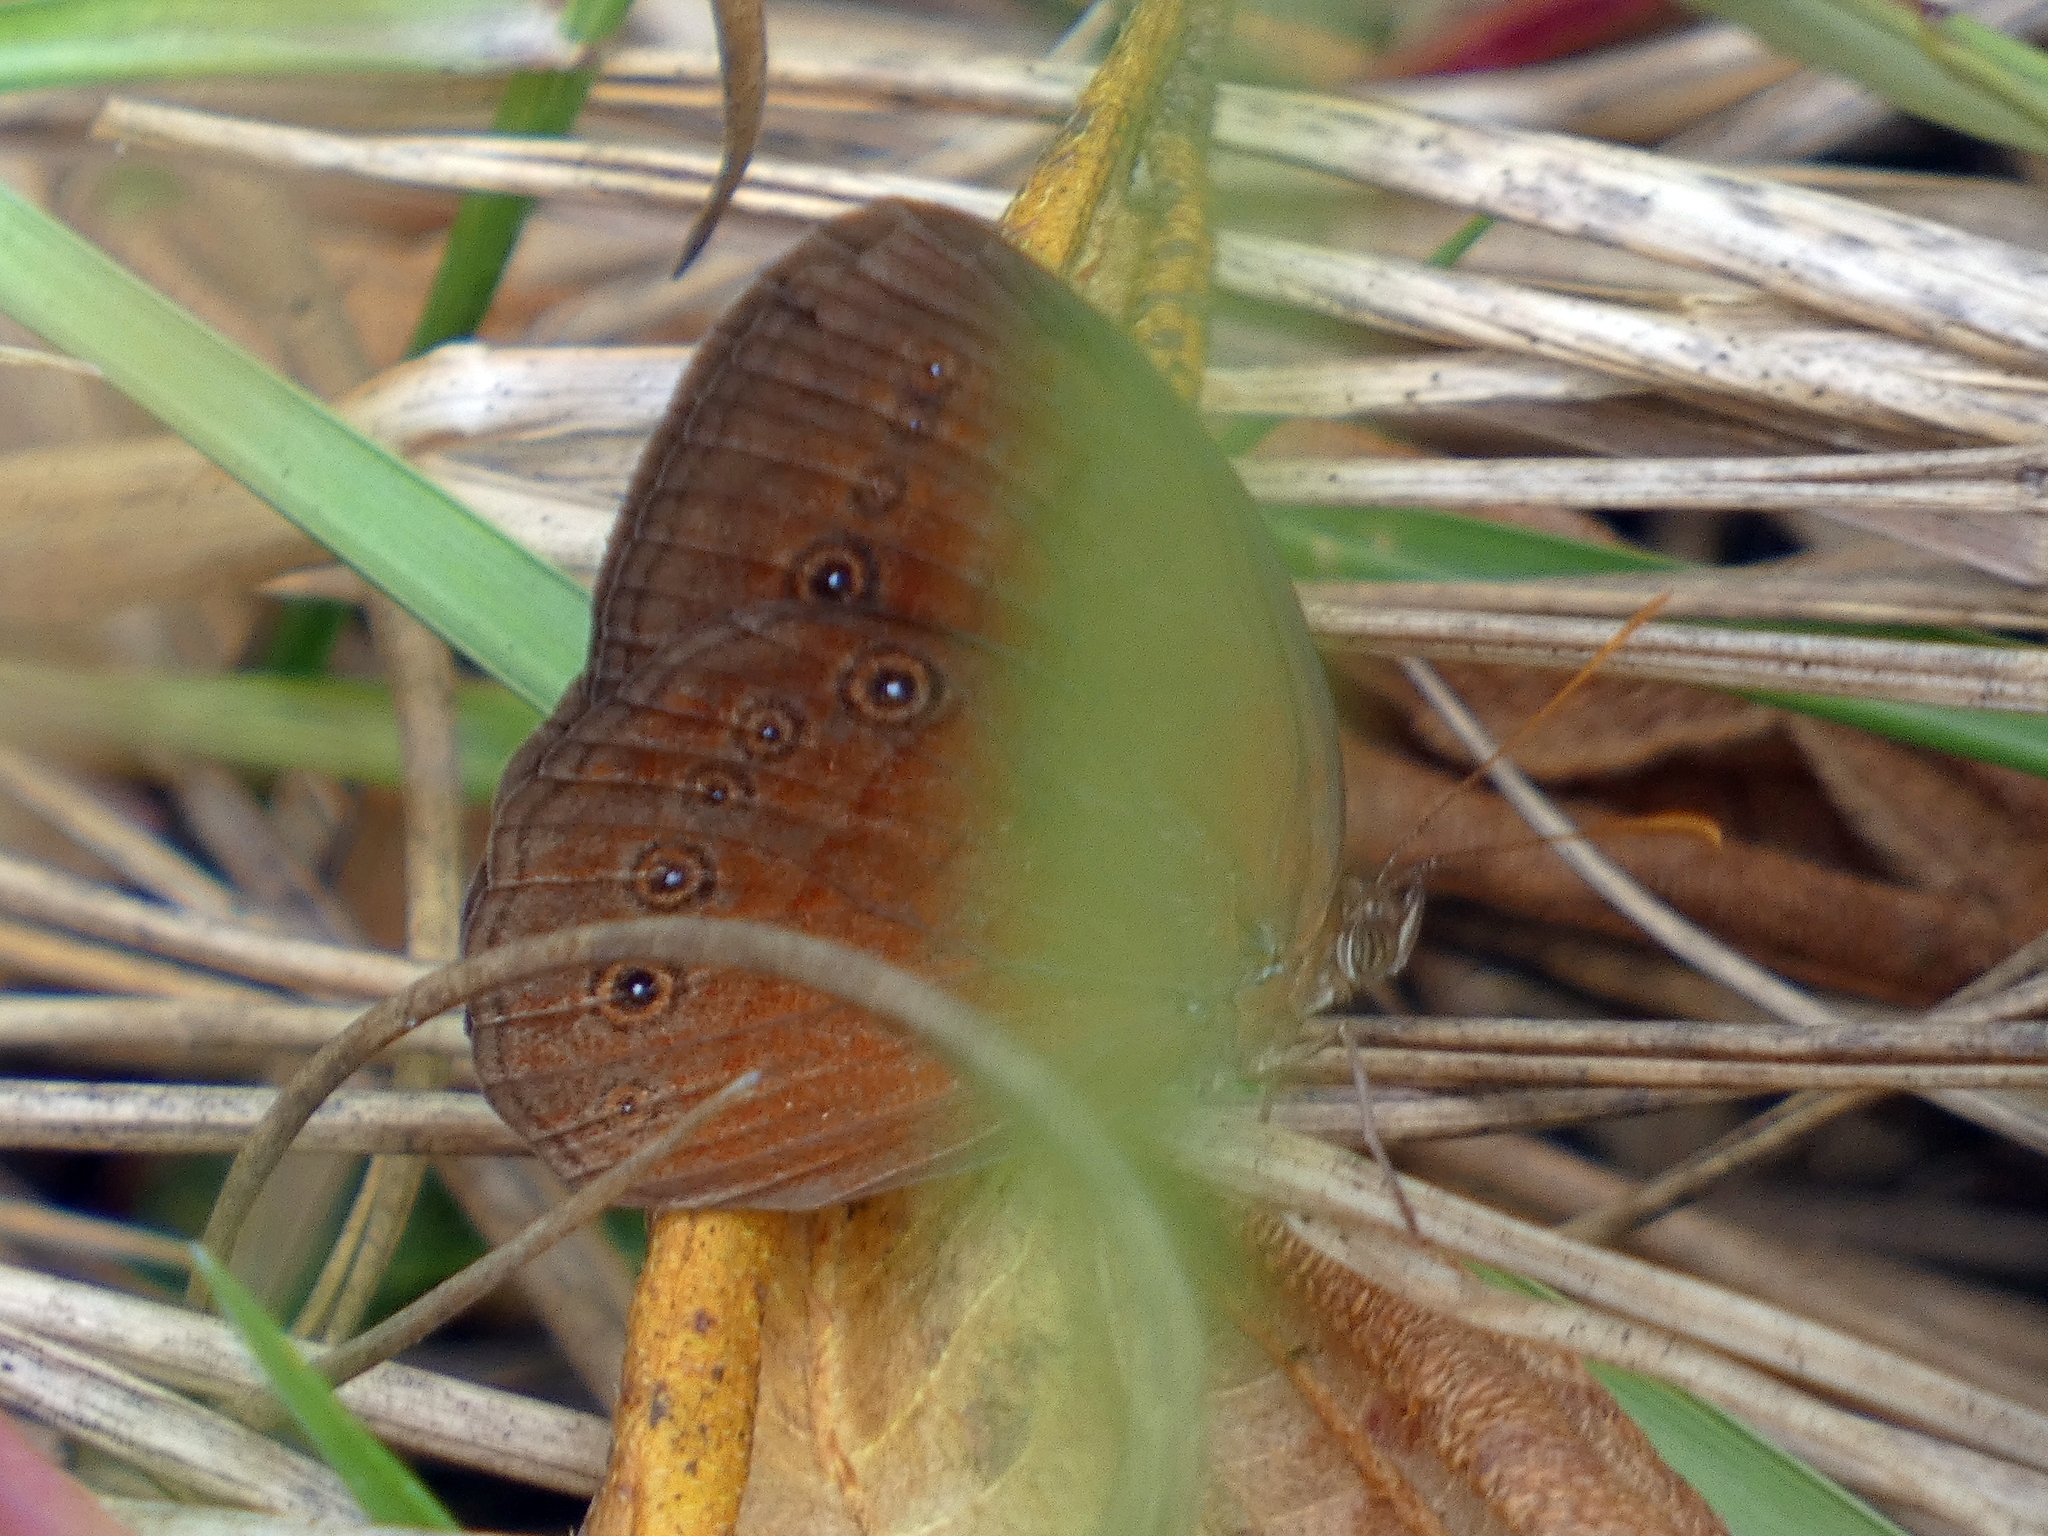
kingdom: Animalia
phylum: Arthropoda
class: Insecta
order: Lepidoptera
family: Nymphalidae
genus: Mycalesis
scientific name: Mycalesis sirius
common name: Cedar bushbrown
